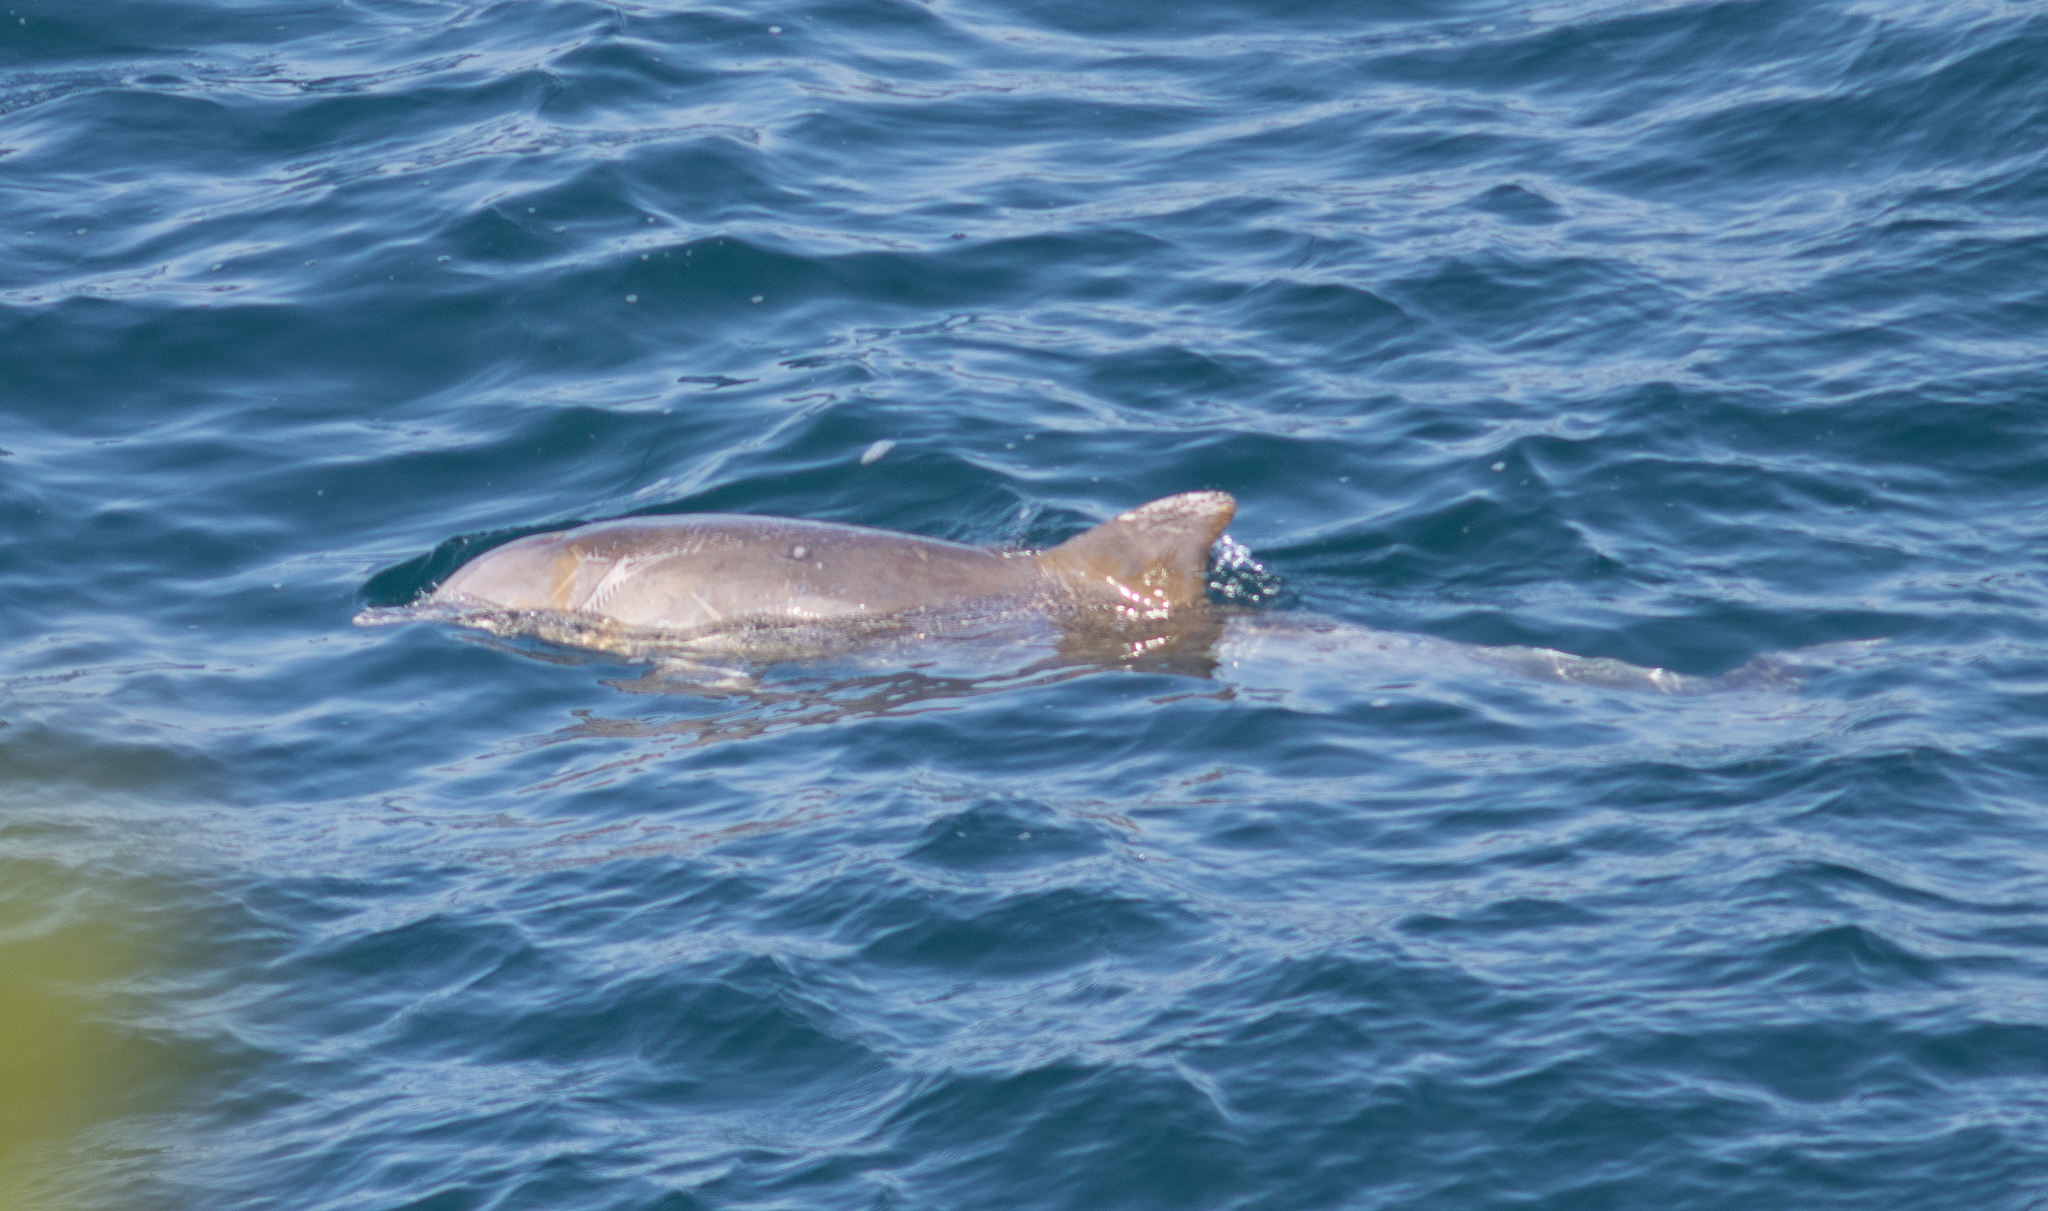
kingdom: Animalia
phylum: Chordata
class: Mammalia
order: Cetacea
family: Delphinidae
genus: Tursiops
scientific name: Tursiops truncatus
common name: Bottlenose dolphin
